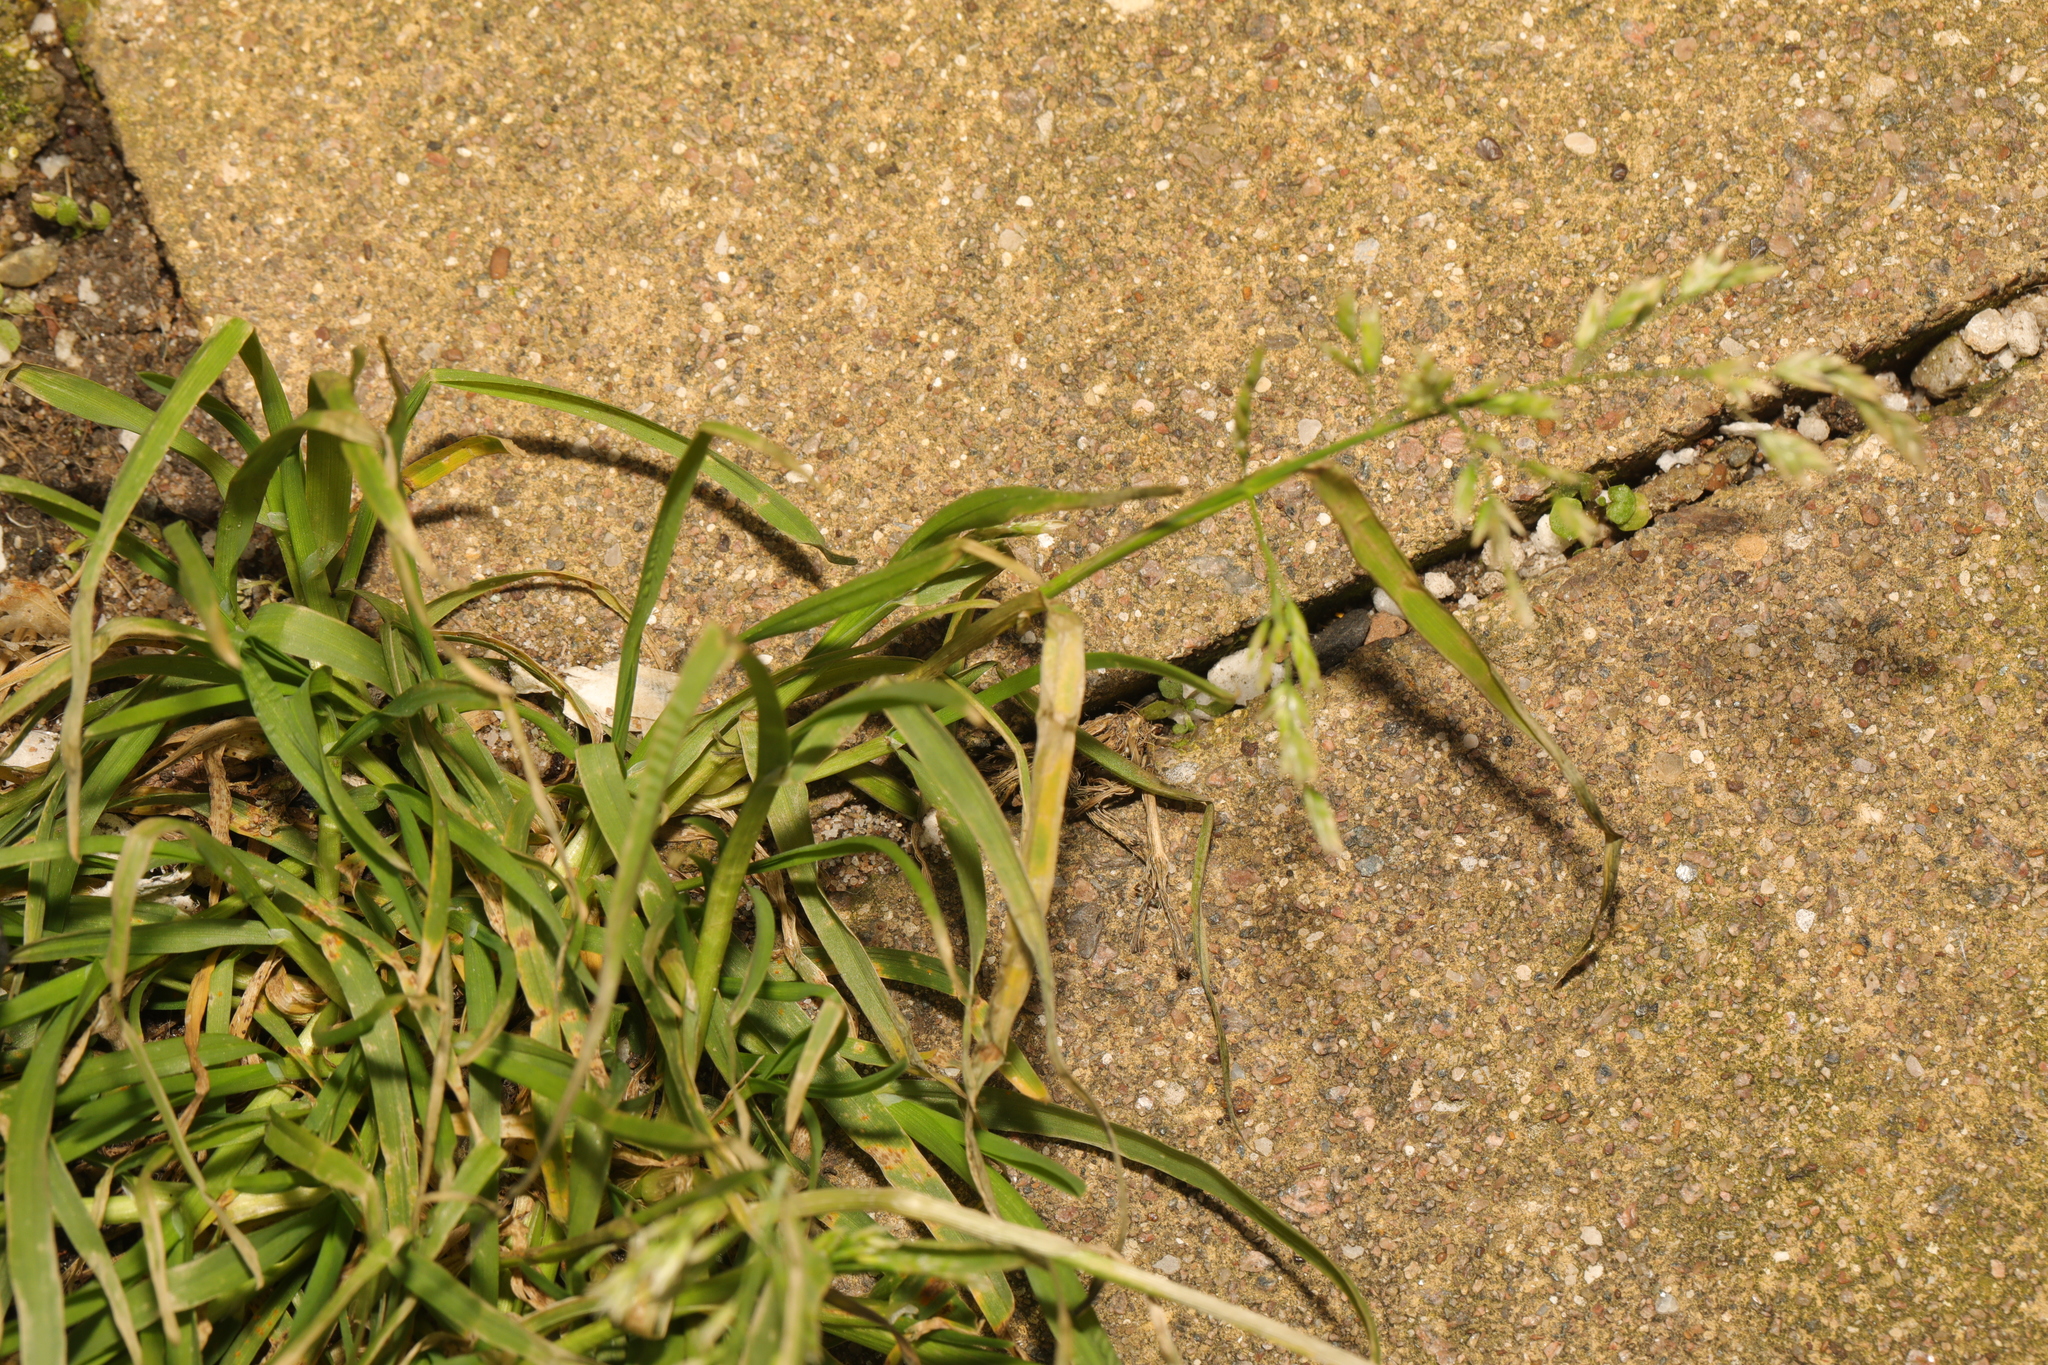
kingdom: Plantae
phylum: Tracheophyta
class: Liliopsida
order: Poales
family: Poaceae
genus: Poa
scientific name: Poa annua
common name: Annual bluegrass
